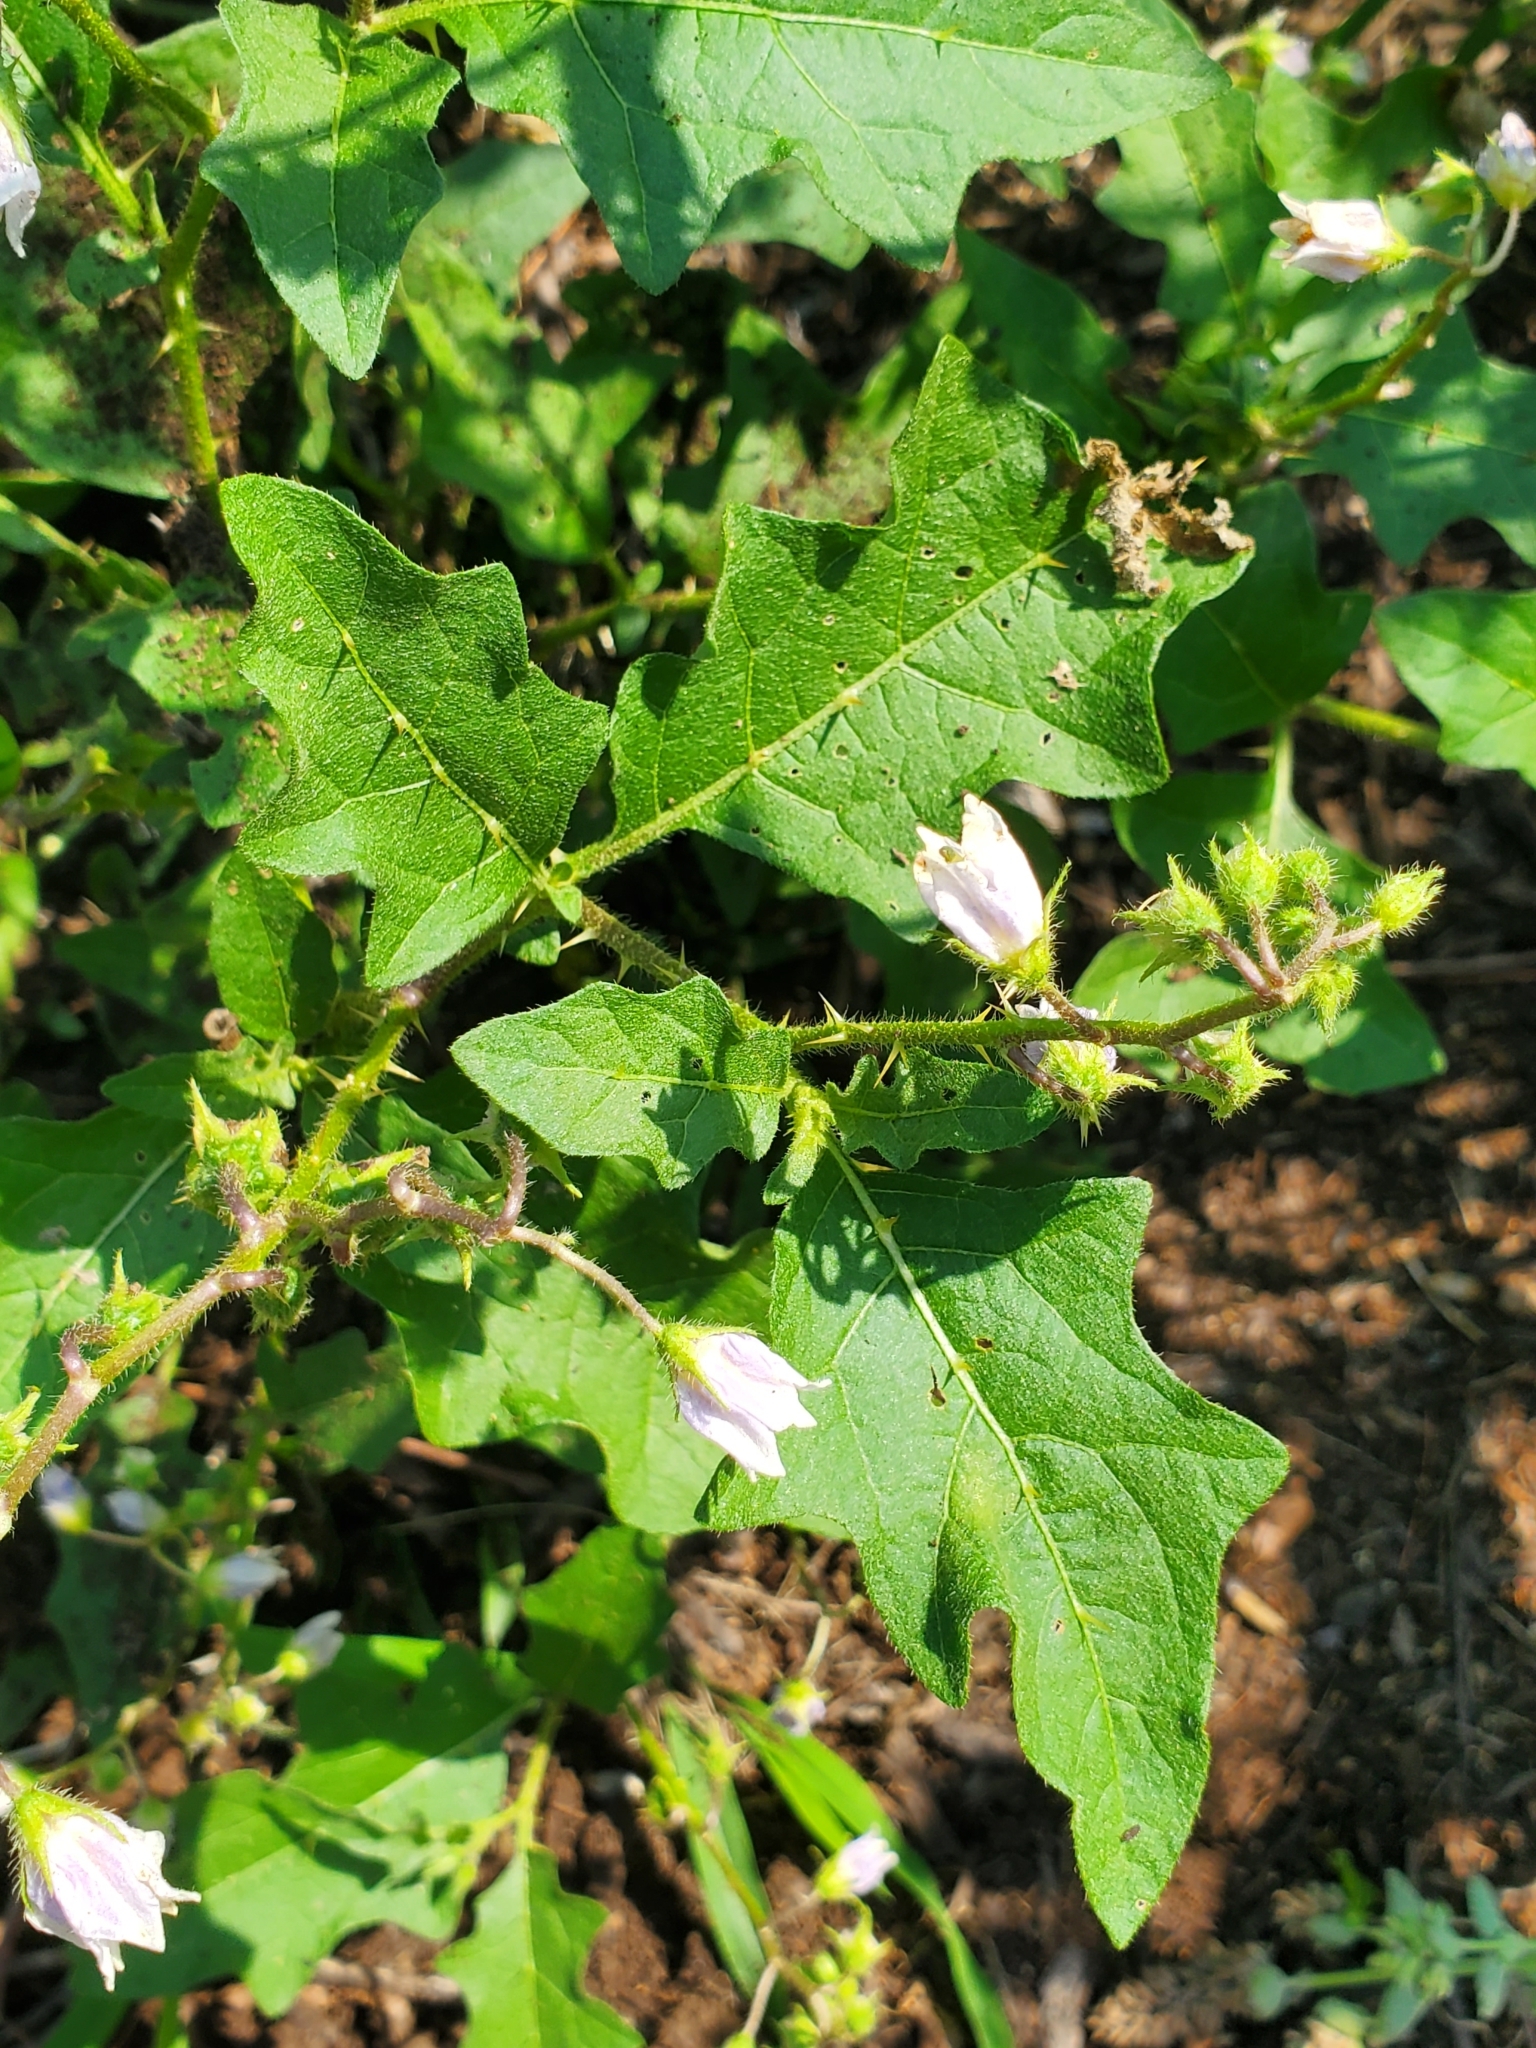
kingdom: Plantae
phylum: Tracheophyta
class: Magnoliopsida
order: Solanales
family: Solanaceae
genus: Solanum
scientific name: Solanum carolinense
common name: Horse-nettle
